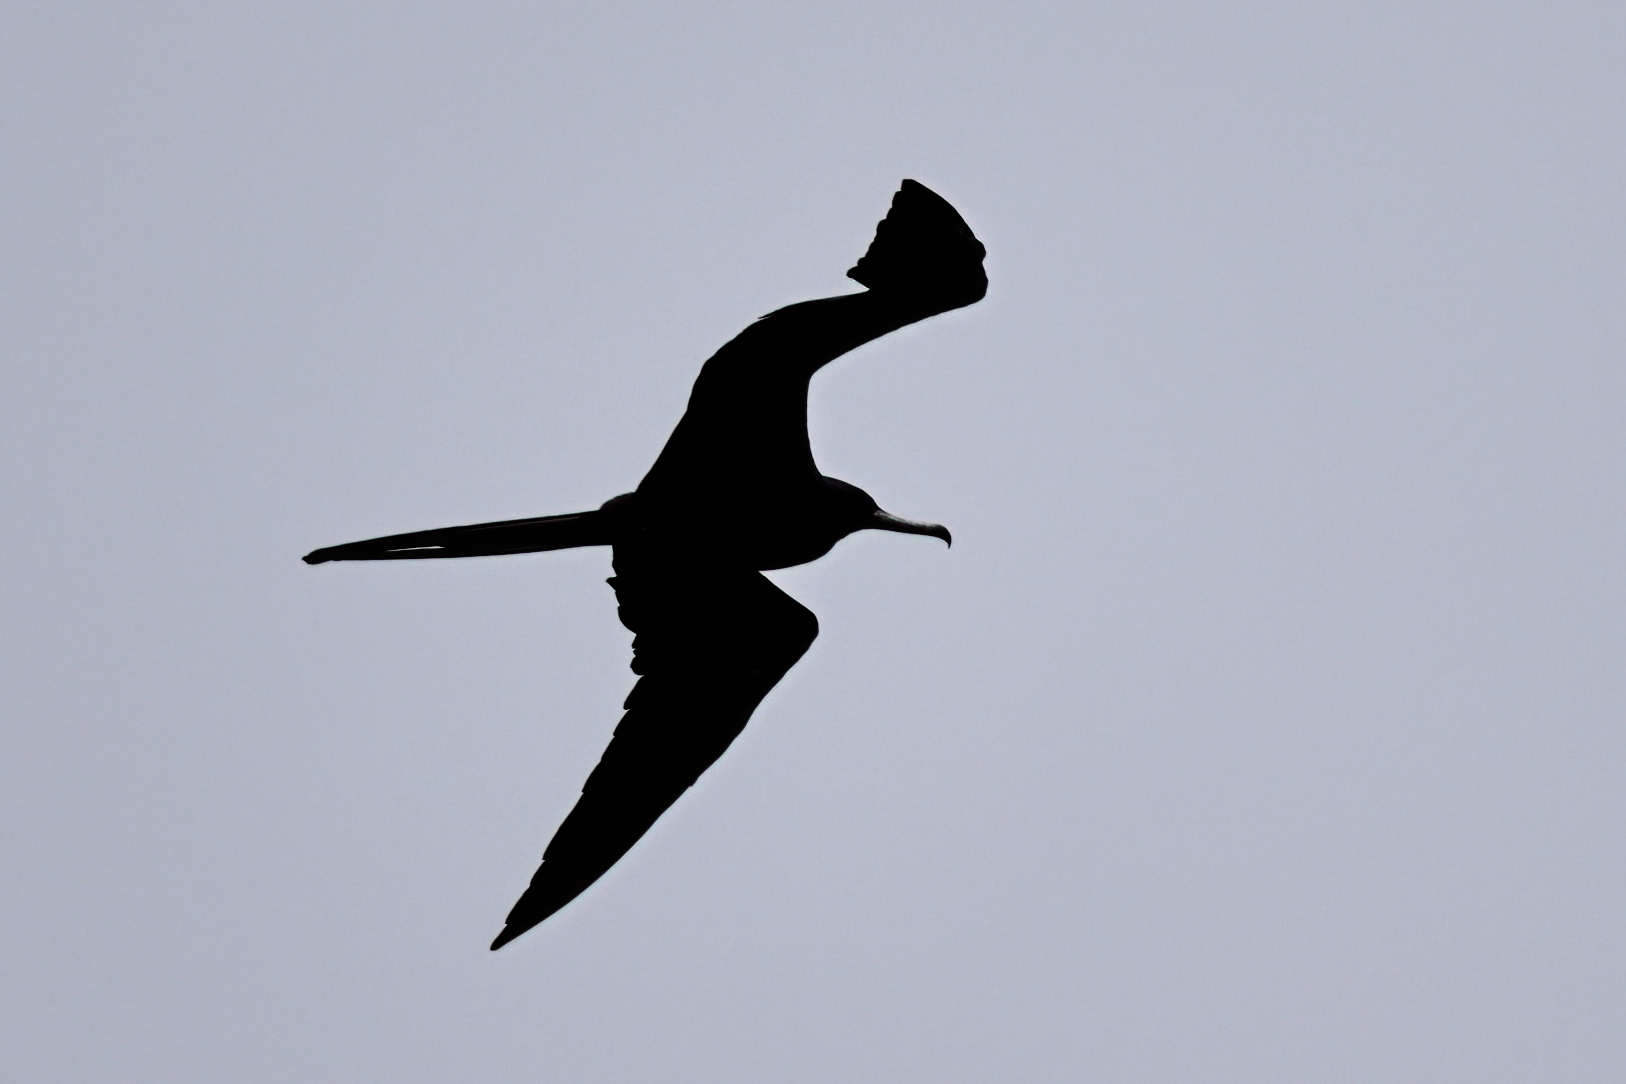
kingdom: Animalia
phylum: Chordata
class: Aves
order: Suliformes
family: Fregatidae
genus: Fregata
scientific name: Fregata magnificens
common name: Magnificent frigatebird
